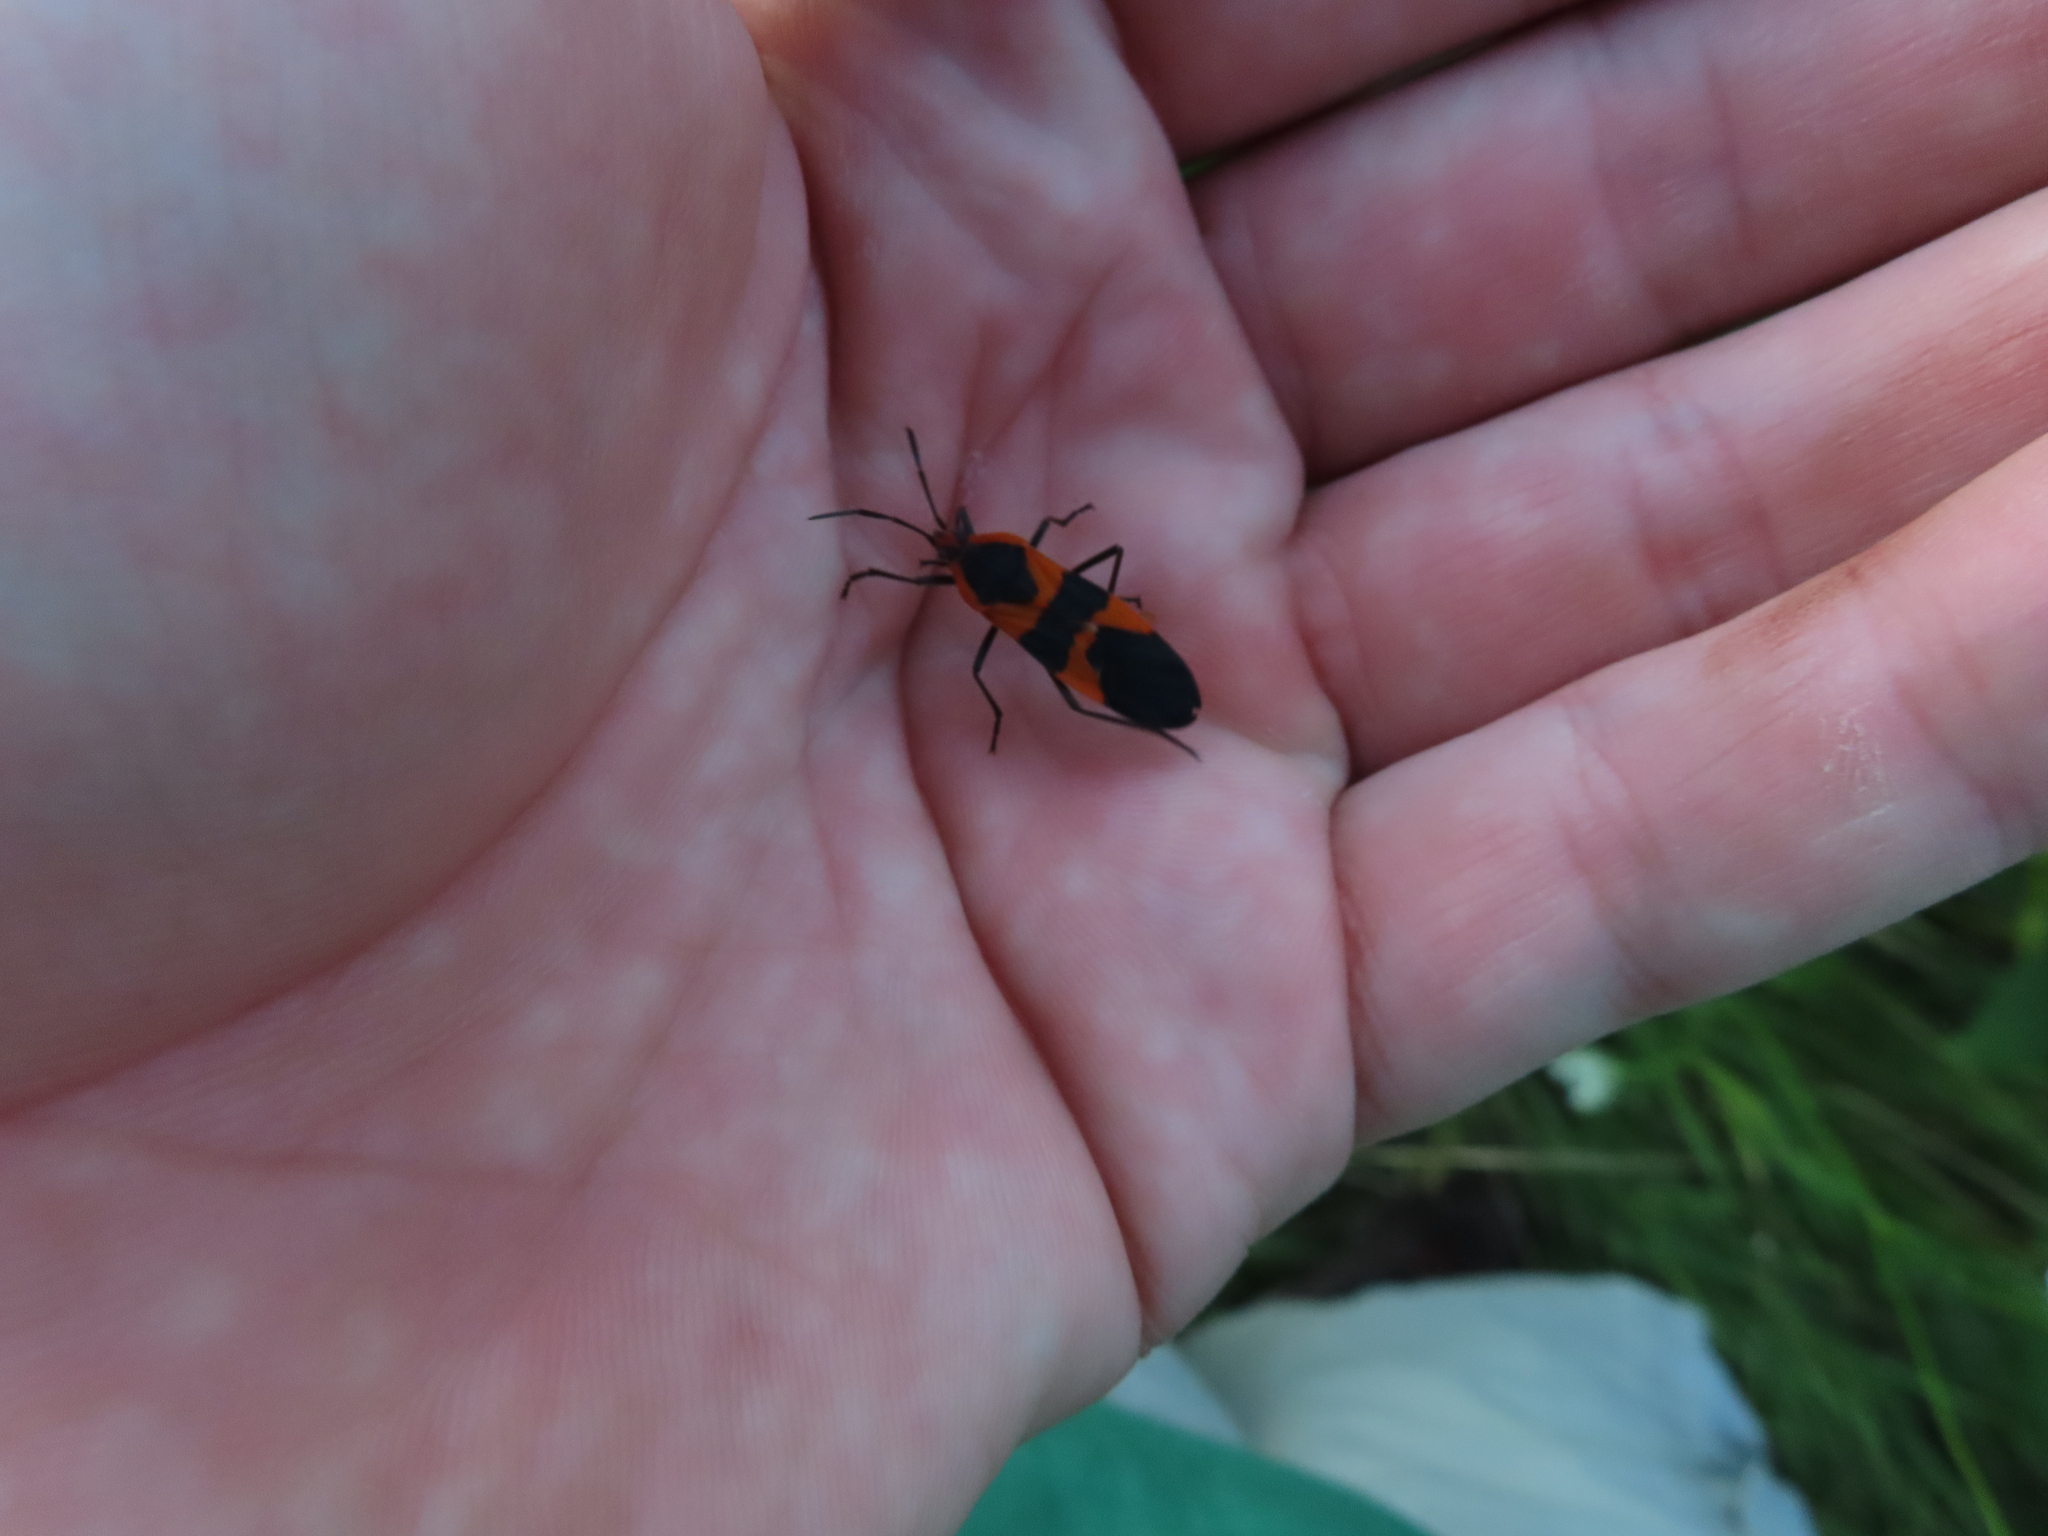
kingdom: Animalia
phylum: Arthropoda
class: Insecta
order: Hemiptera
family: Lygaeidae
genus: Oncopeltus
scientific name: Oncopeltus fasciatus
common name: Large milkweed bug
